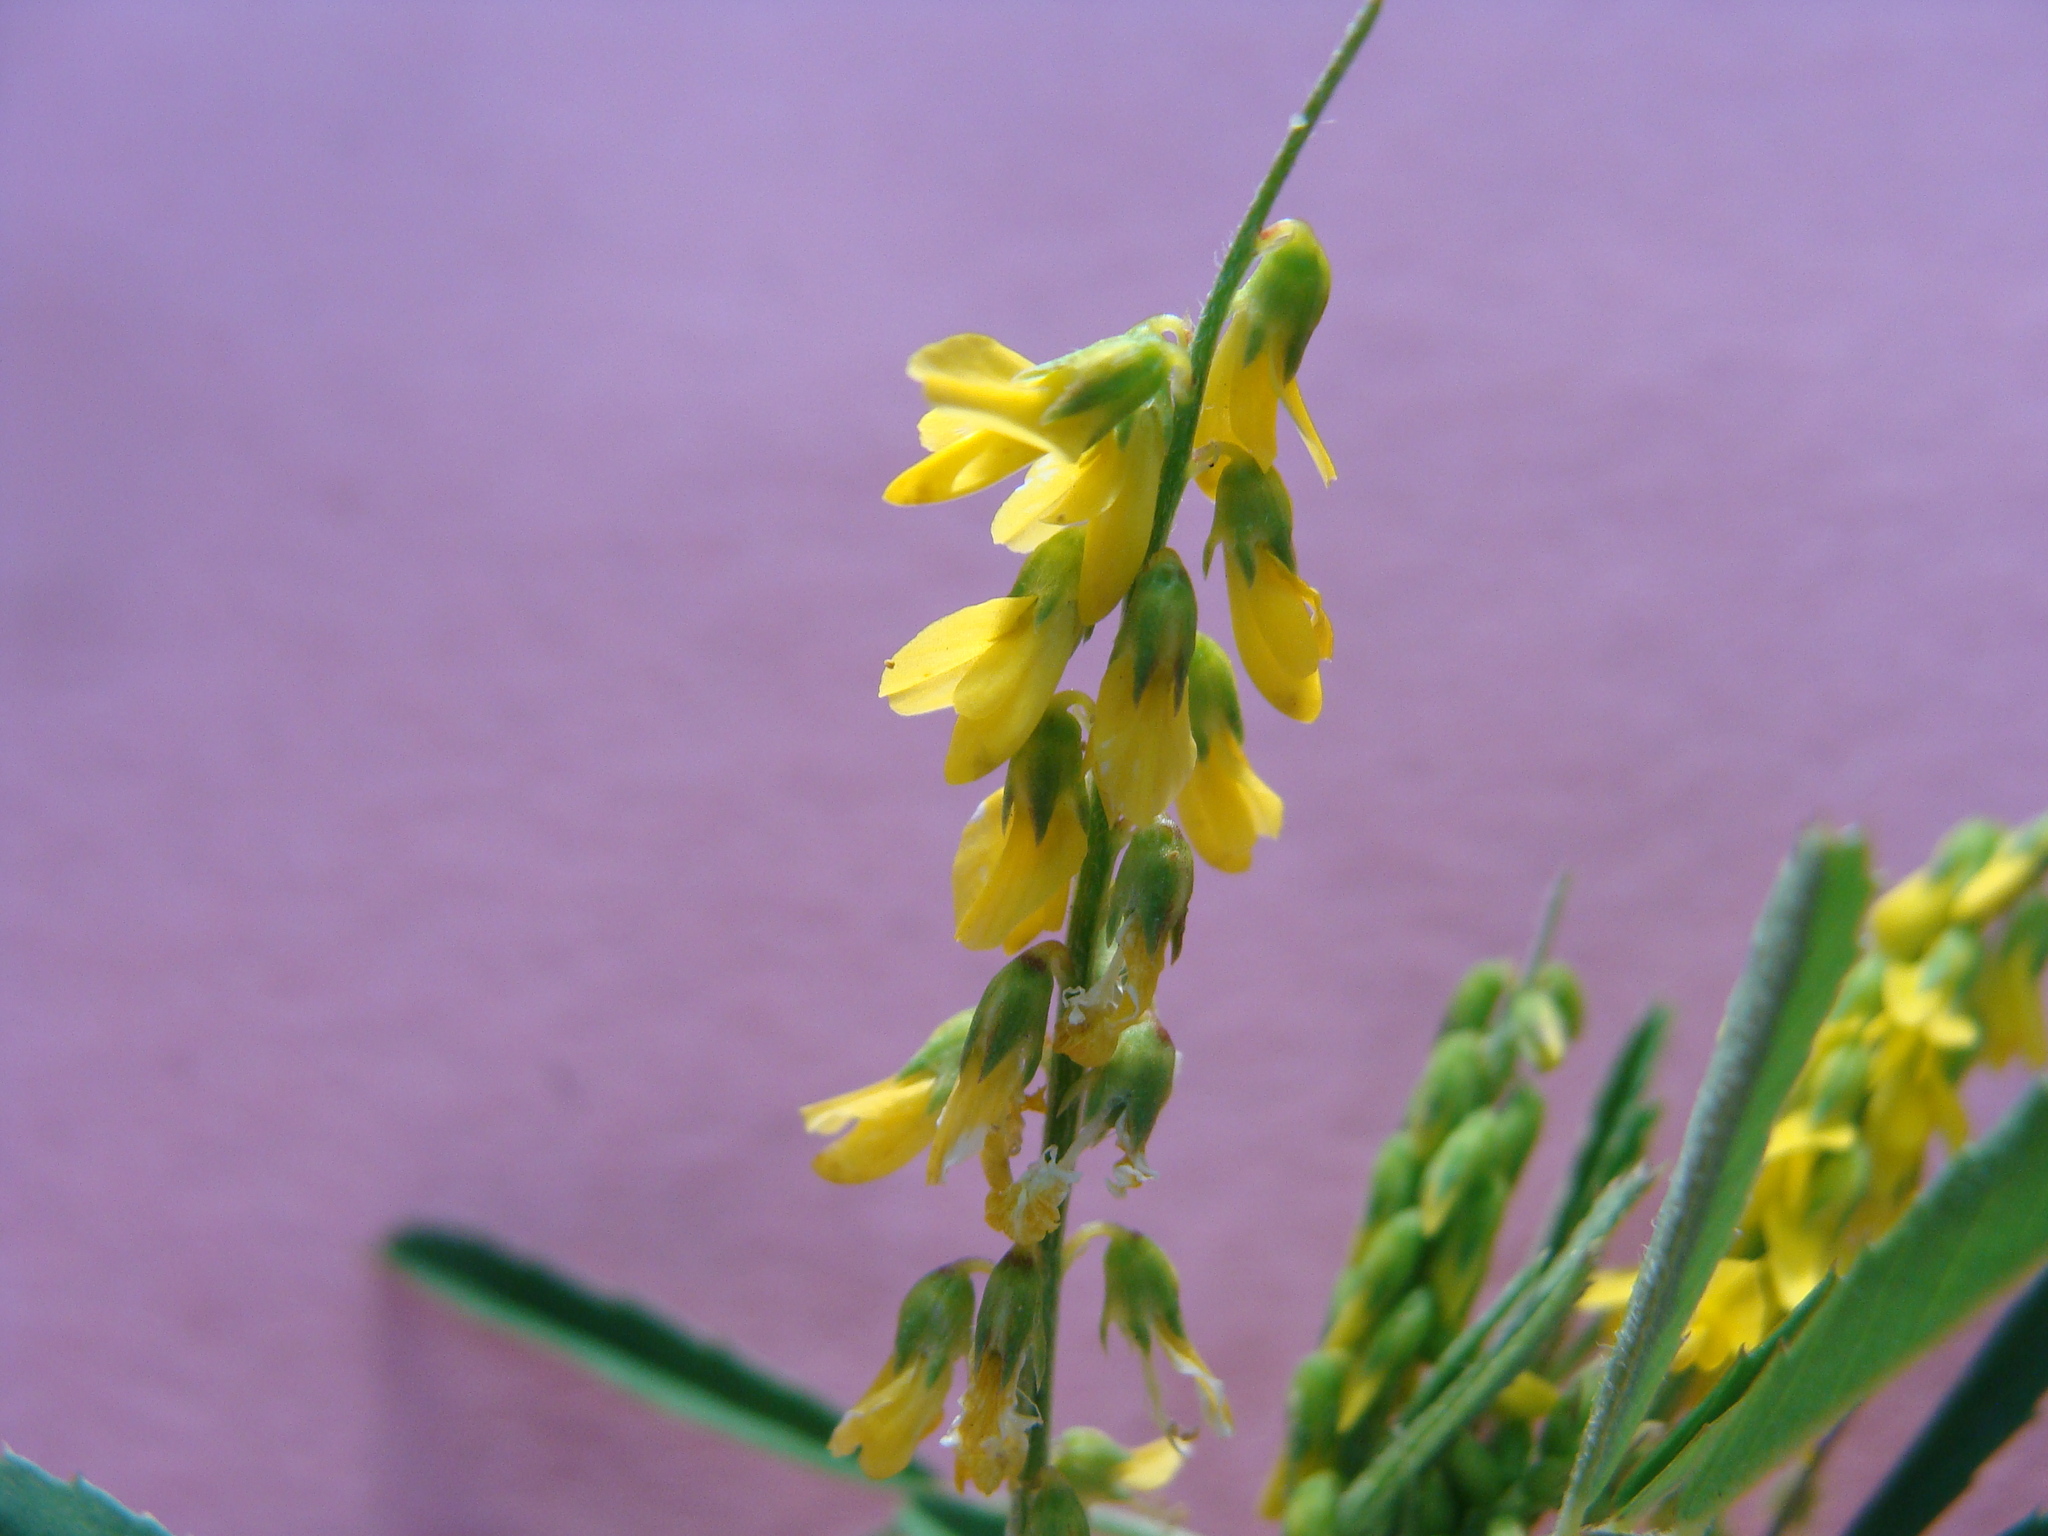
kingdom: Plantae
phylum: Tracheophyta
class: Magnoliopsida
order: Fabales
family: Fabaceae
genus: Melilotus
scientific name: Melilotus segetalis
